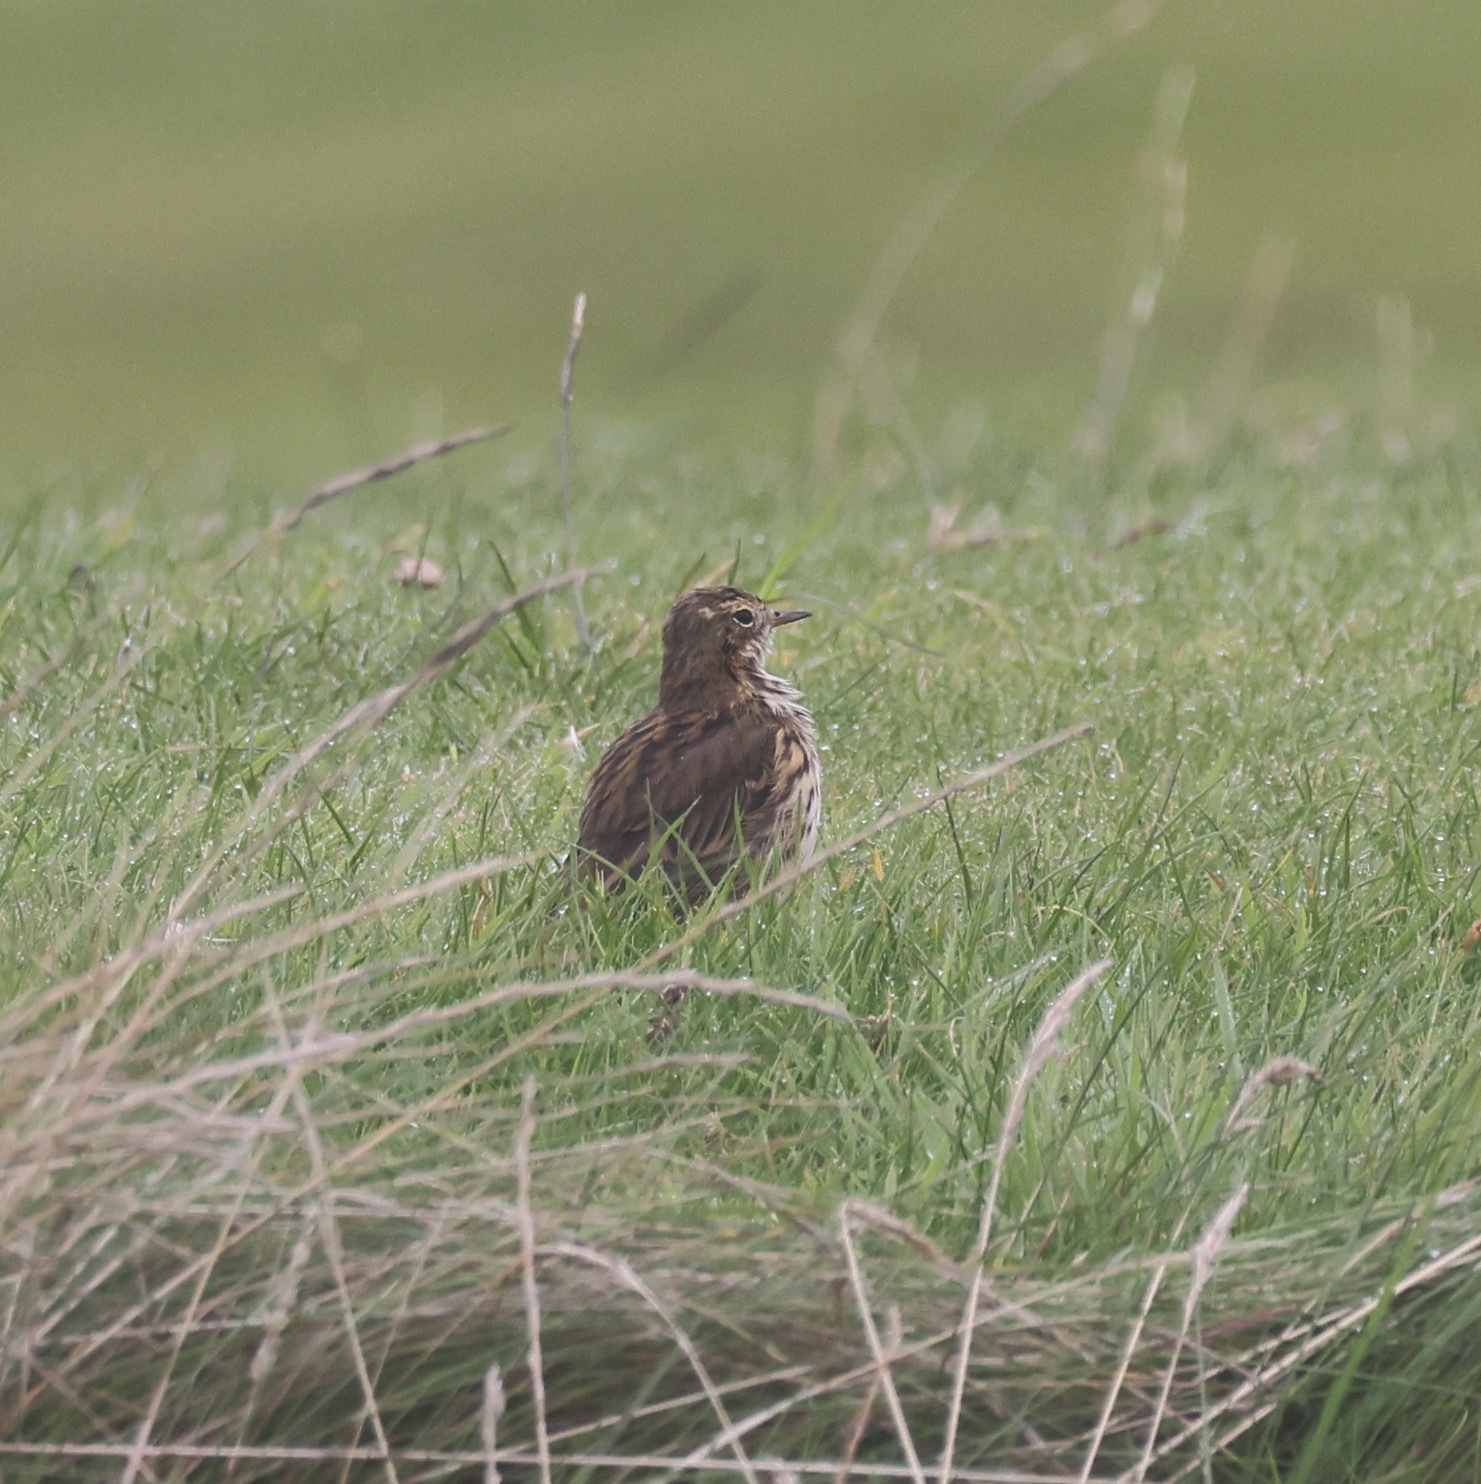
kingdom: Animalia
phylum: Chordata
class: Aves
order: Passeriformes
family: Turdidae
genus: Turdus
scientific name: Turdus philomelos
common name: Song thrush
